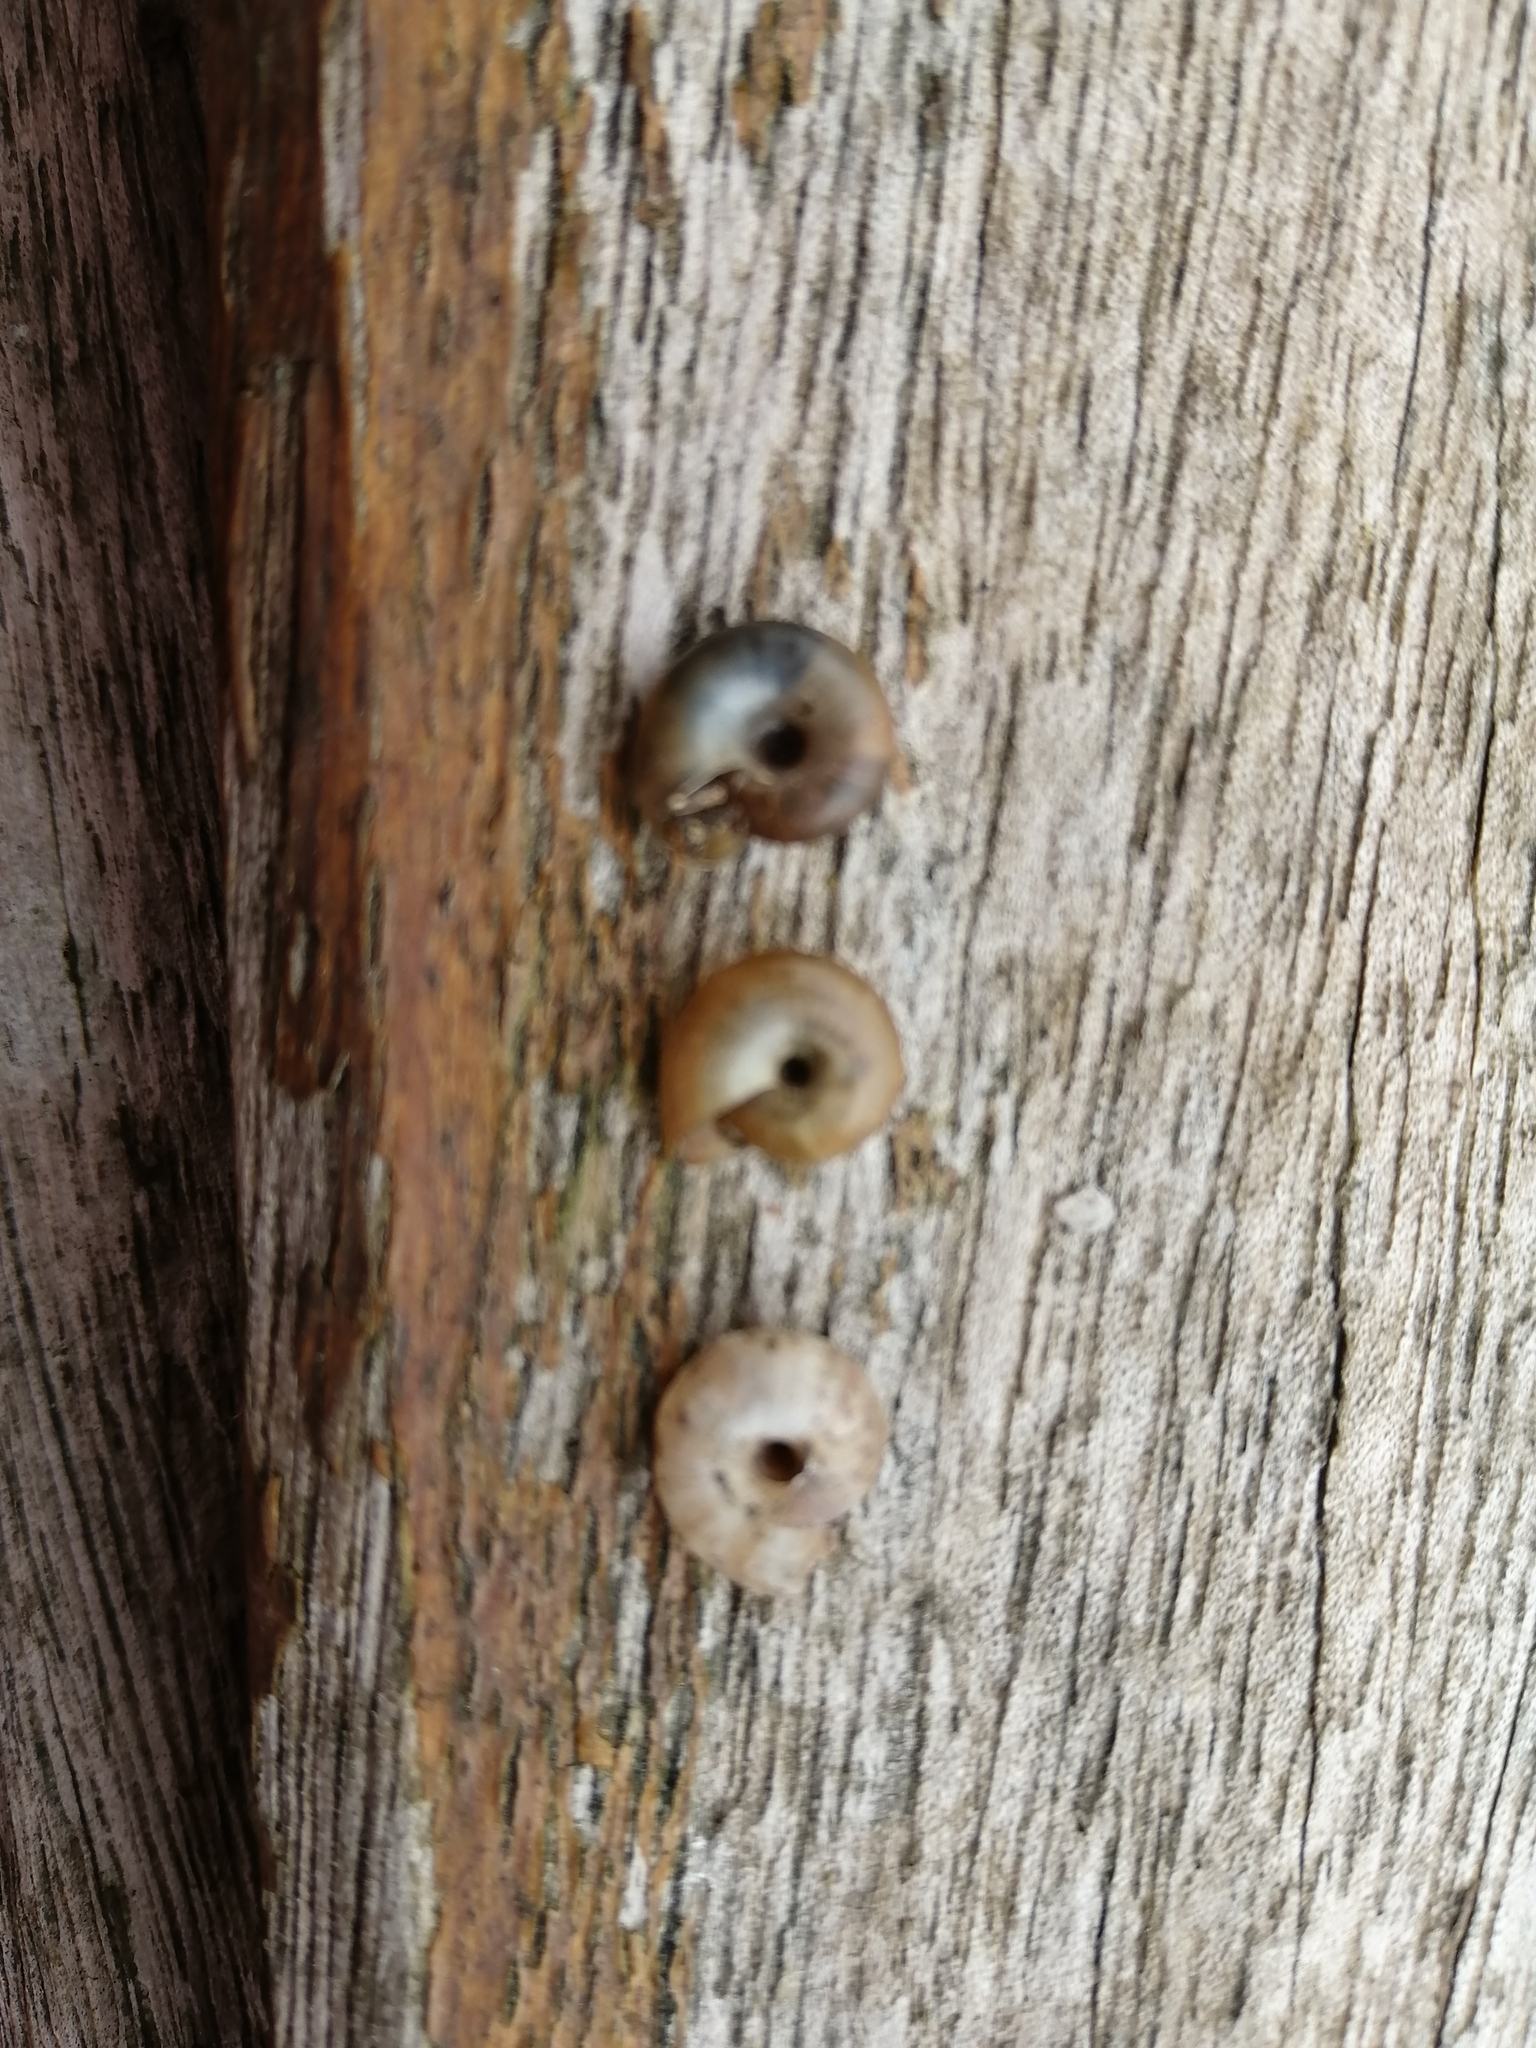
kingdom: Animalia
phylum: Mollusca
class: Gastropoda
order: Stylommatophora
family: Gastrodontidae
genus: Aegopinella
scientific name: Aegopinella nitidula
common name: Smooth glass snail
